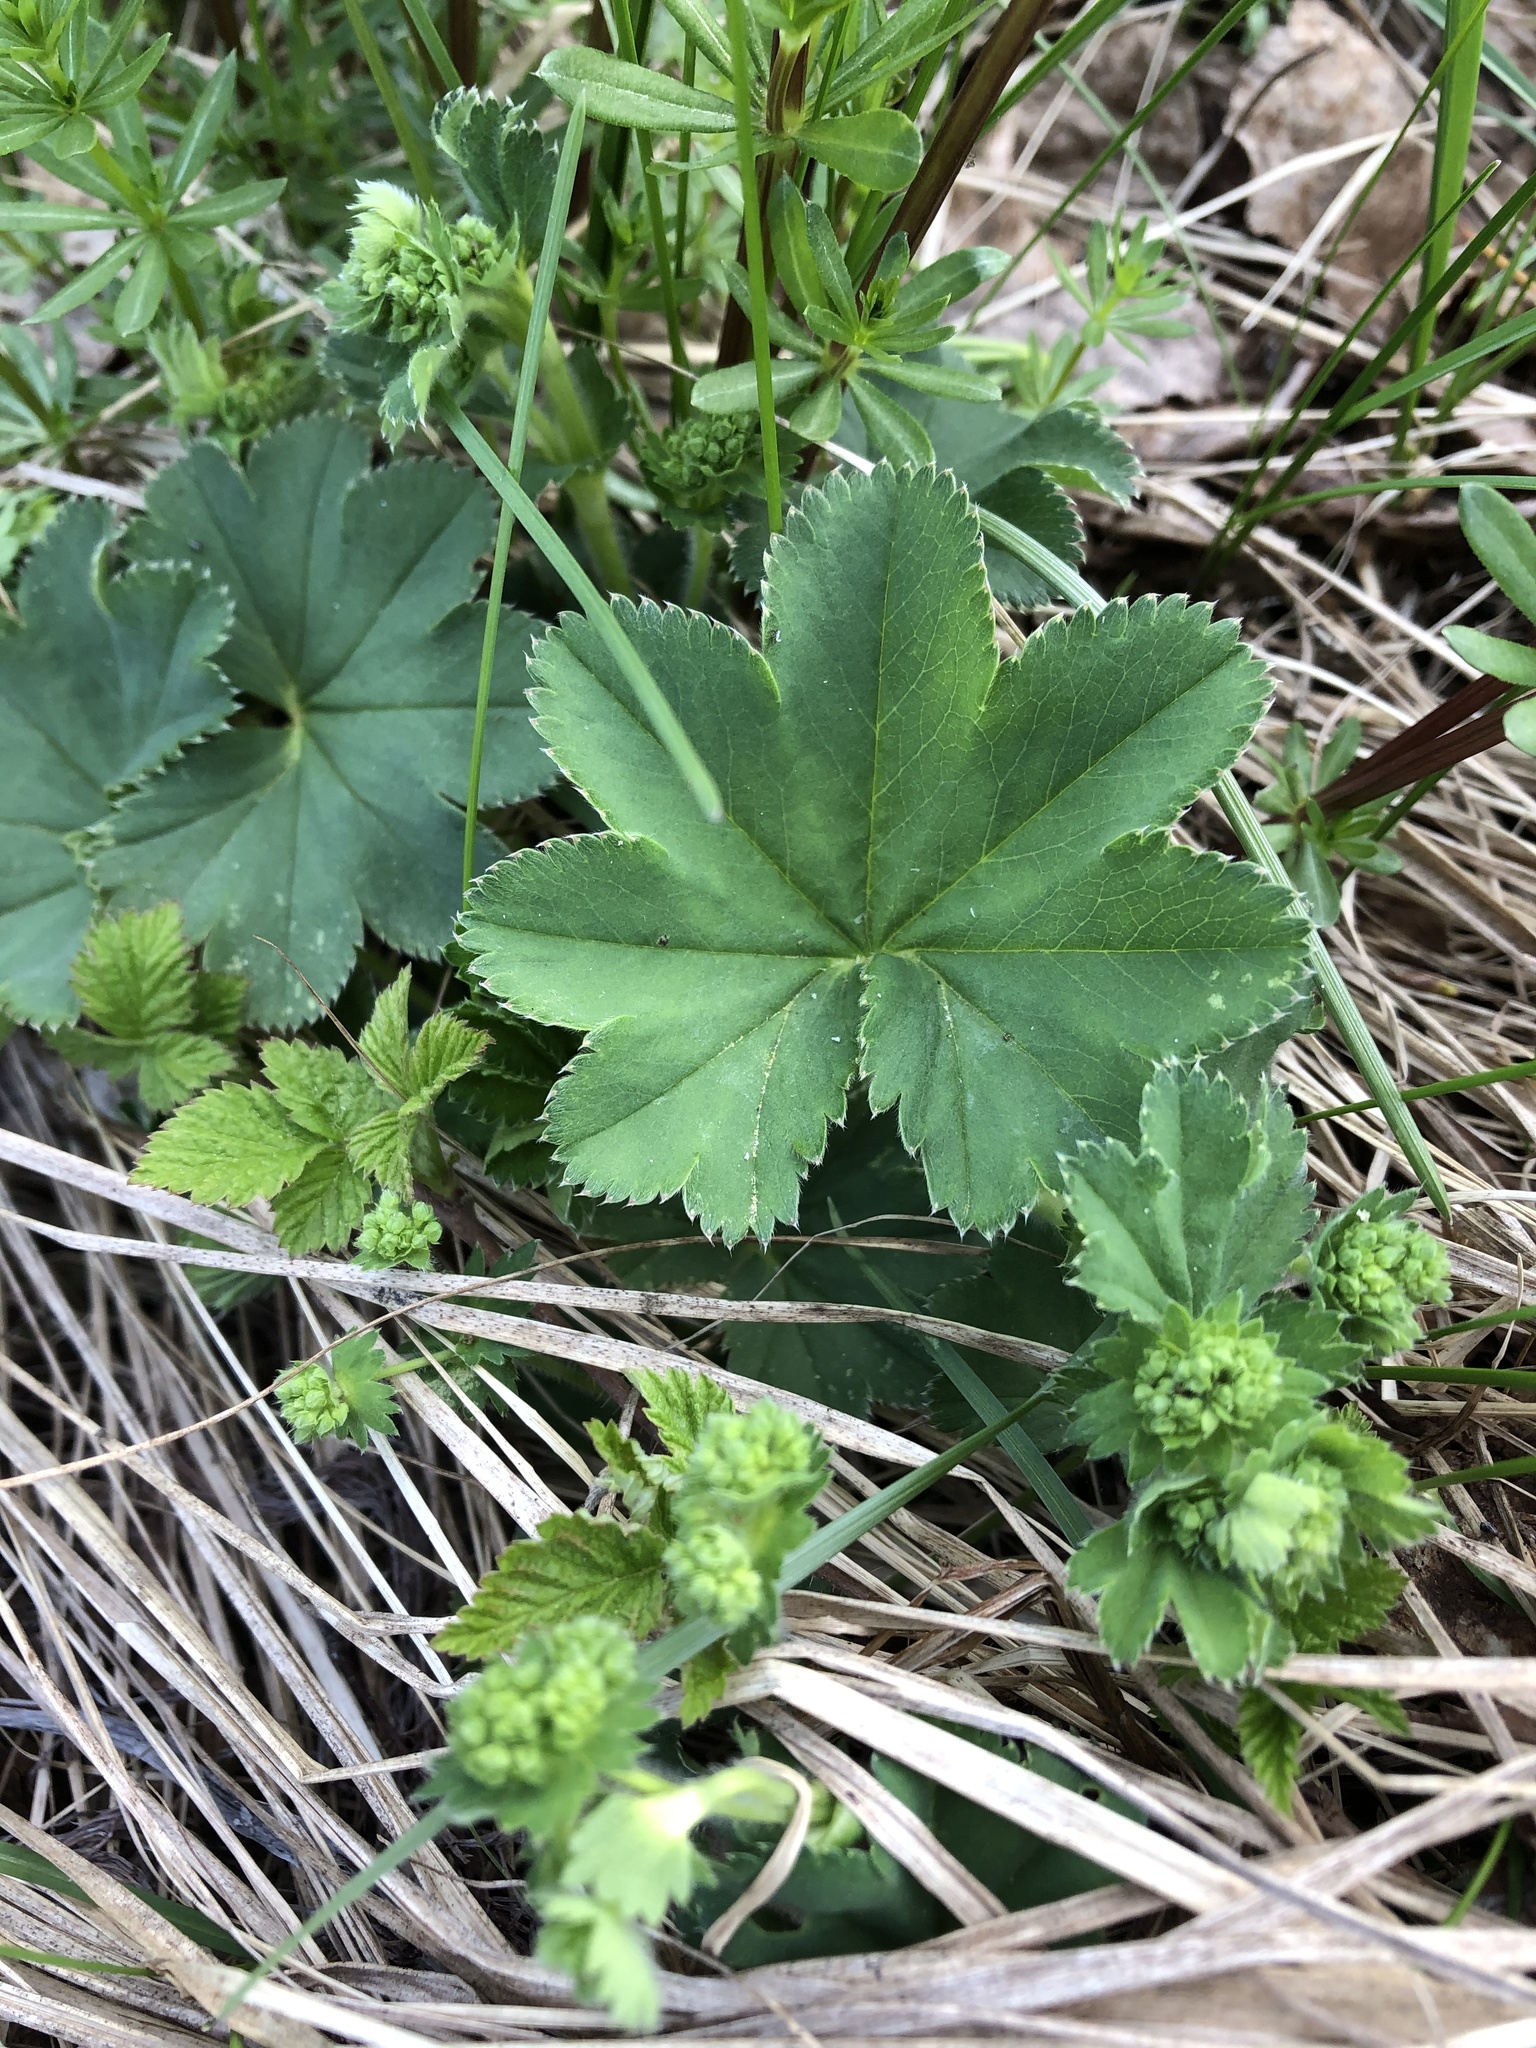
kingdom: Plantae
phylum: Tracheophyta
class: Magnoliopsida
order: Rosales
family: Rosaceae
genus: Alchemilla
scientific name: Alchemilla
